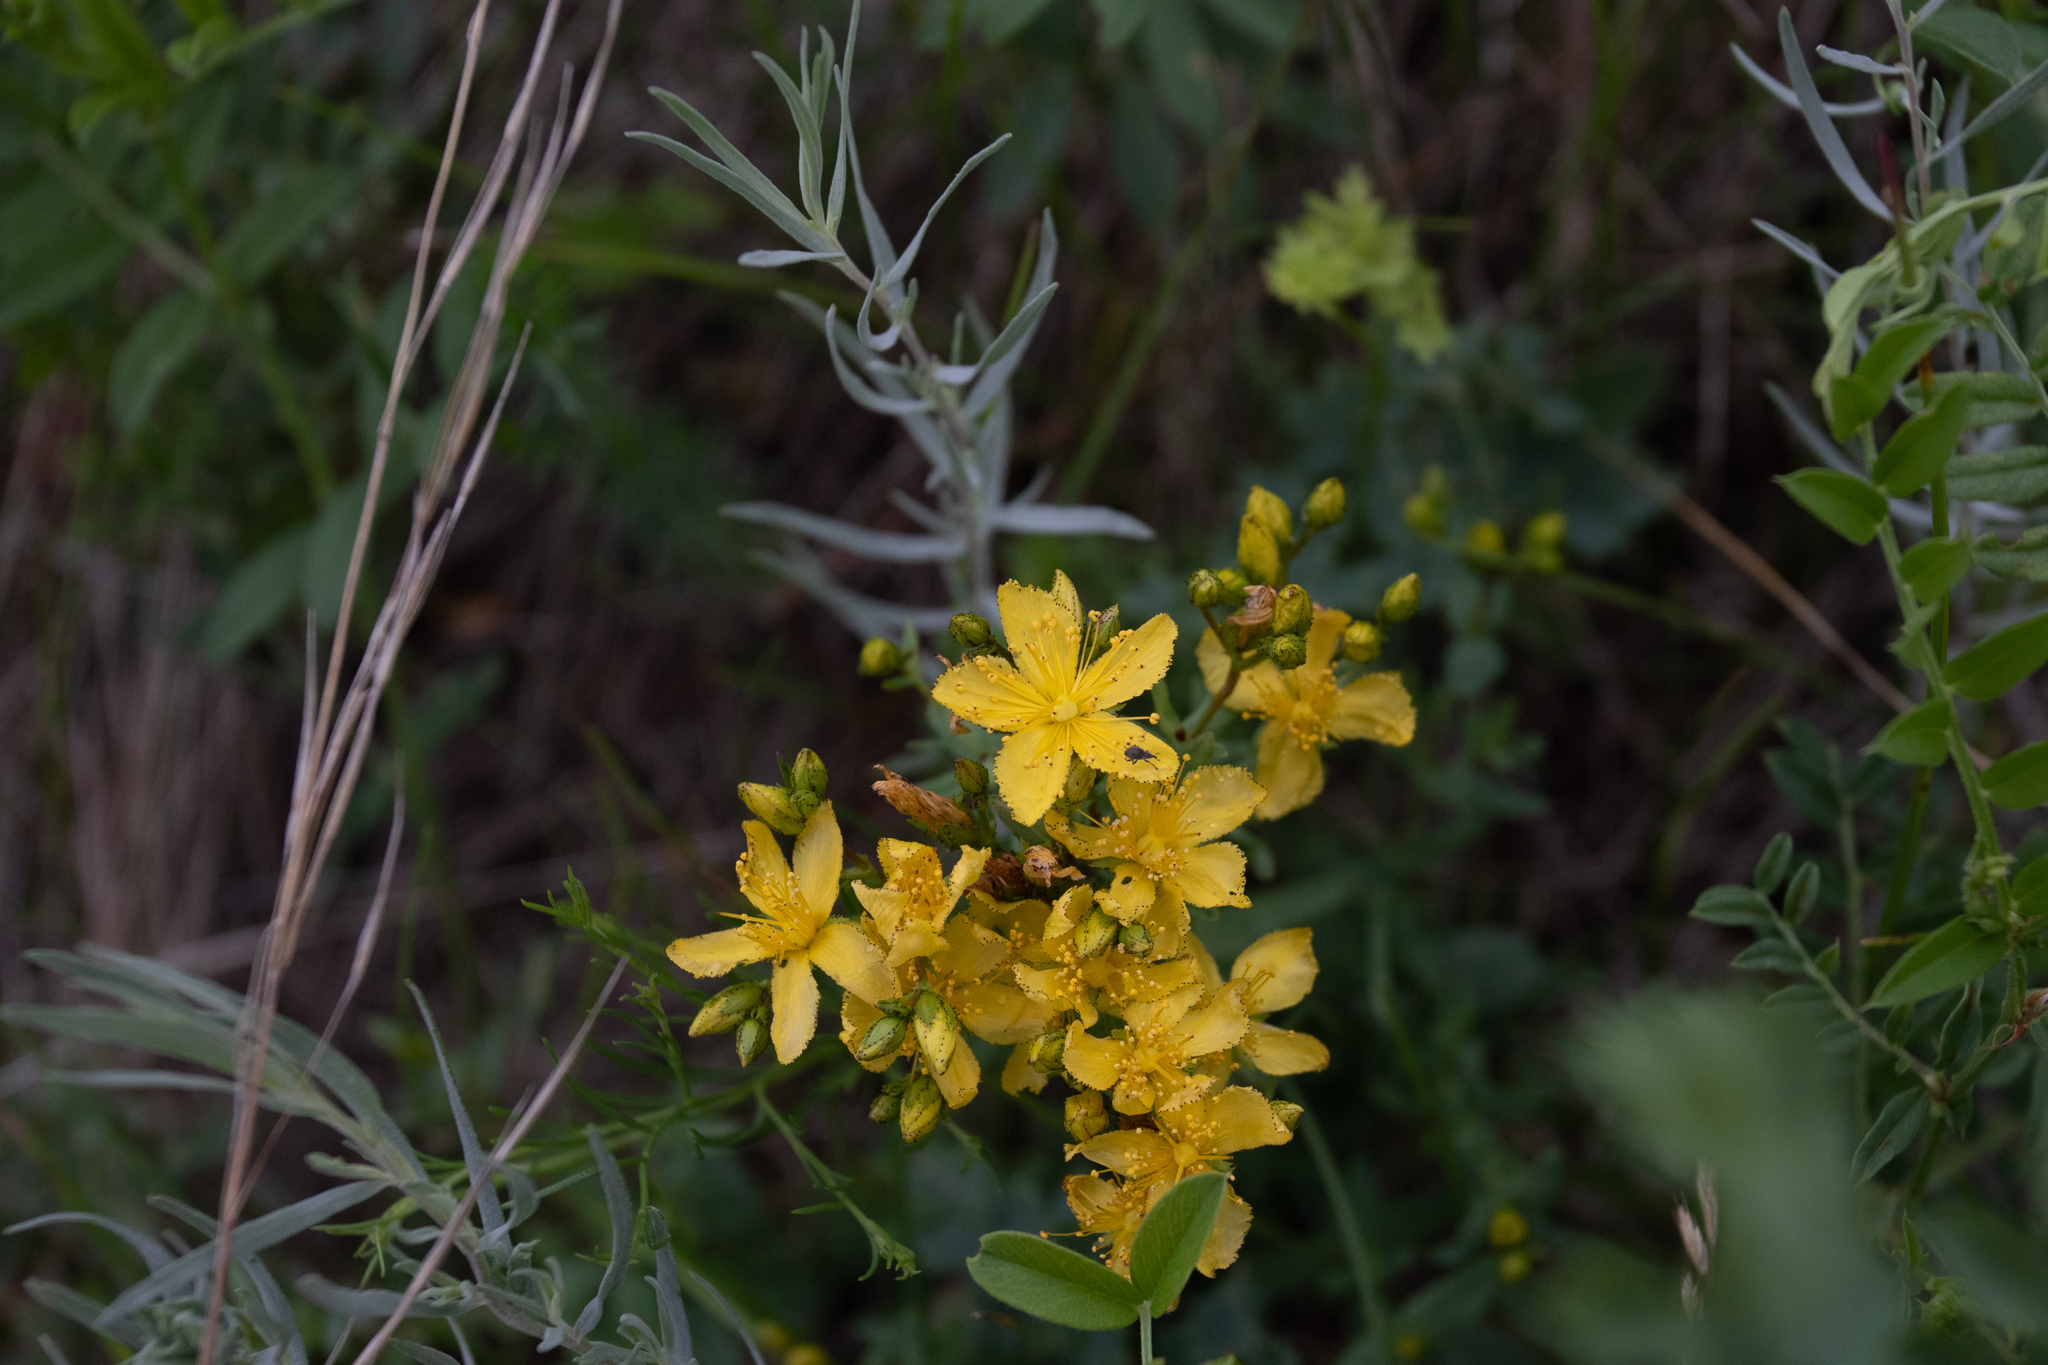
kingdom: Plantae
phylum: Tracheophyta
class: Magnoliopsida
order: Malpighiales
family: Hypericaceae
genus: Hypericum
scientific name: Hypericum elegans
